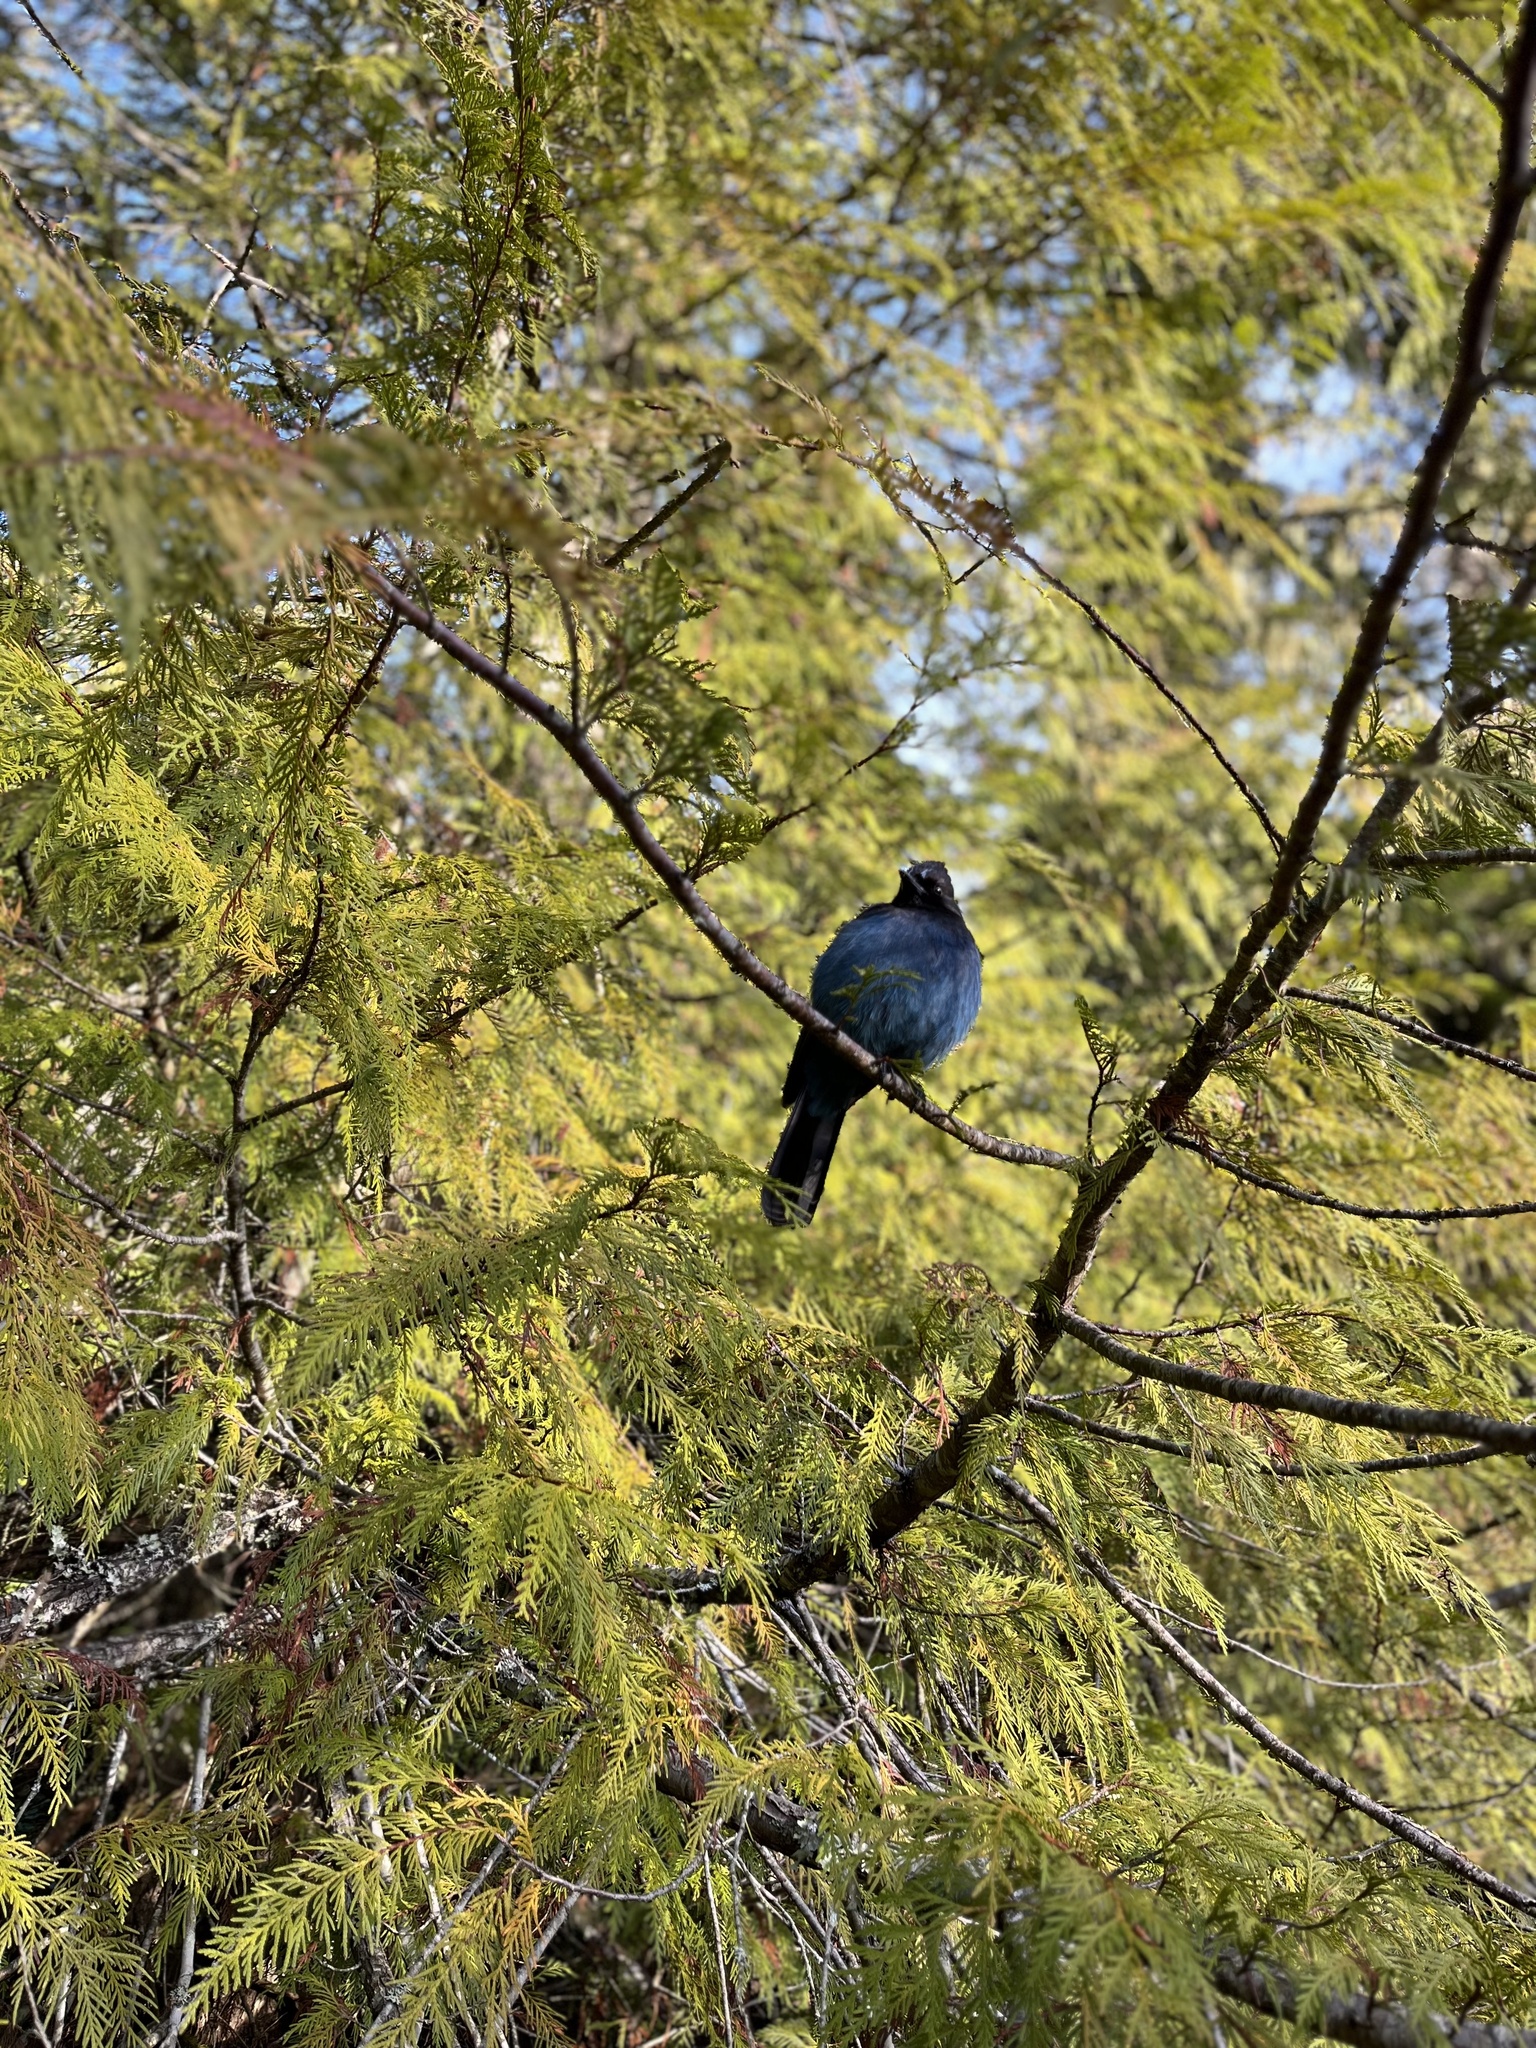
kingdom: Animalia
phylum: Chordata
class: Aves
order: Passeriformes
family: Corvidae
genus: Cyanocitta
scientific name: Cyanocitta stelleri
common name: Steller's jay
